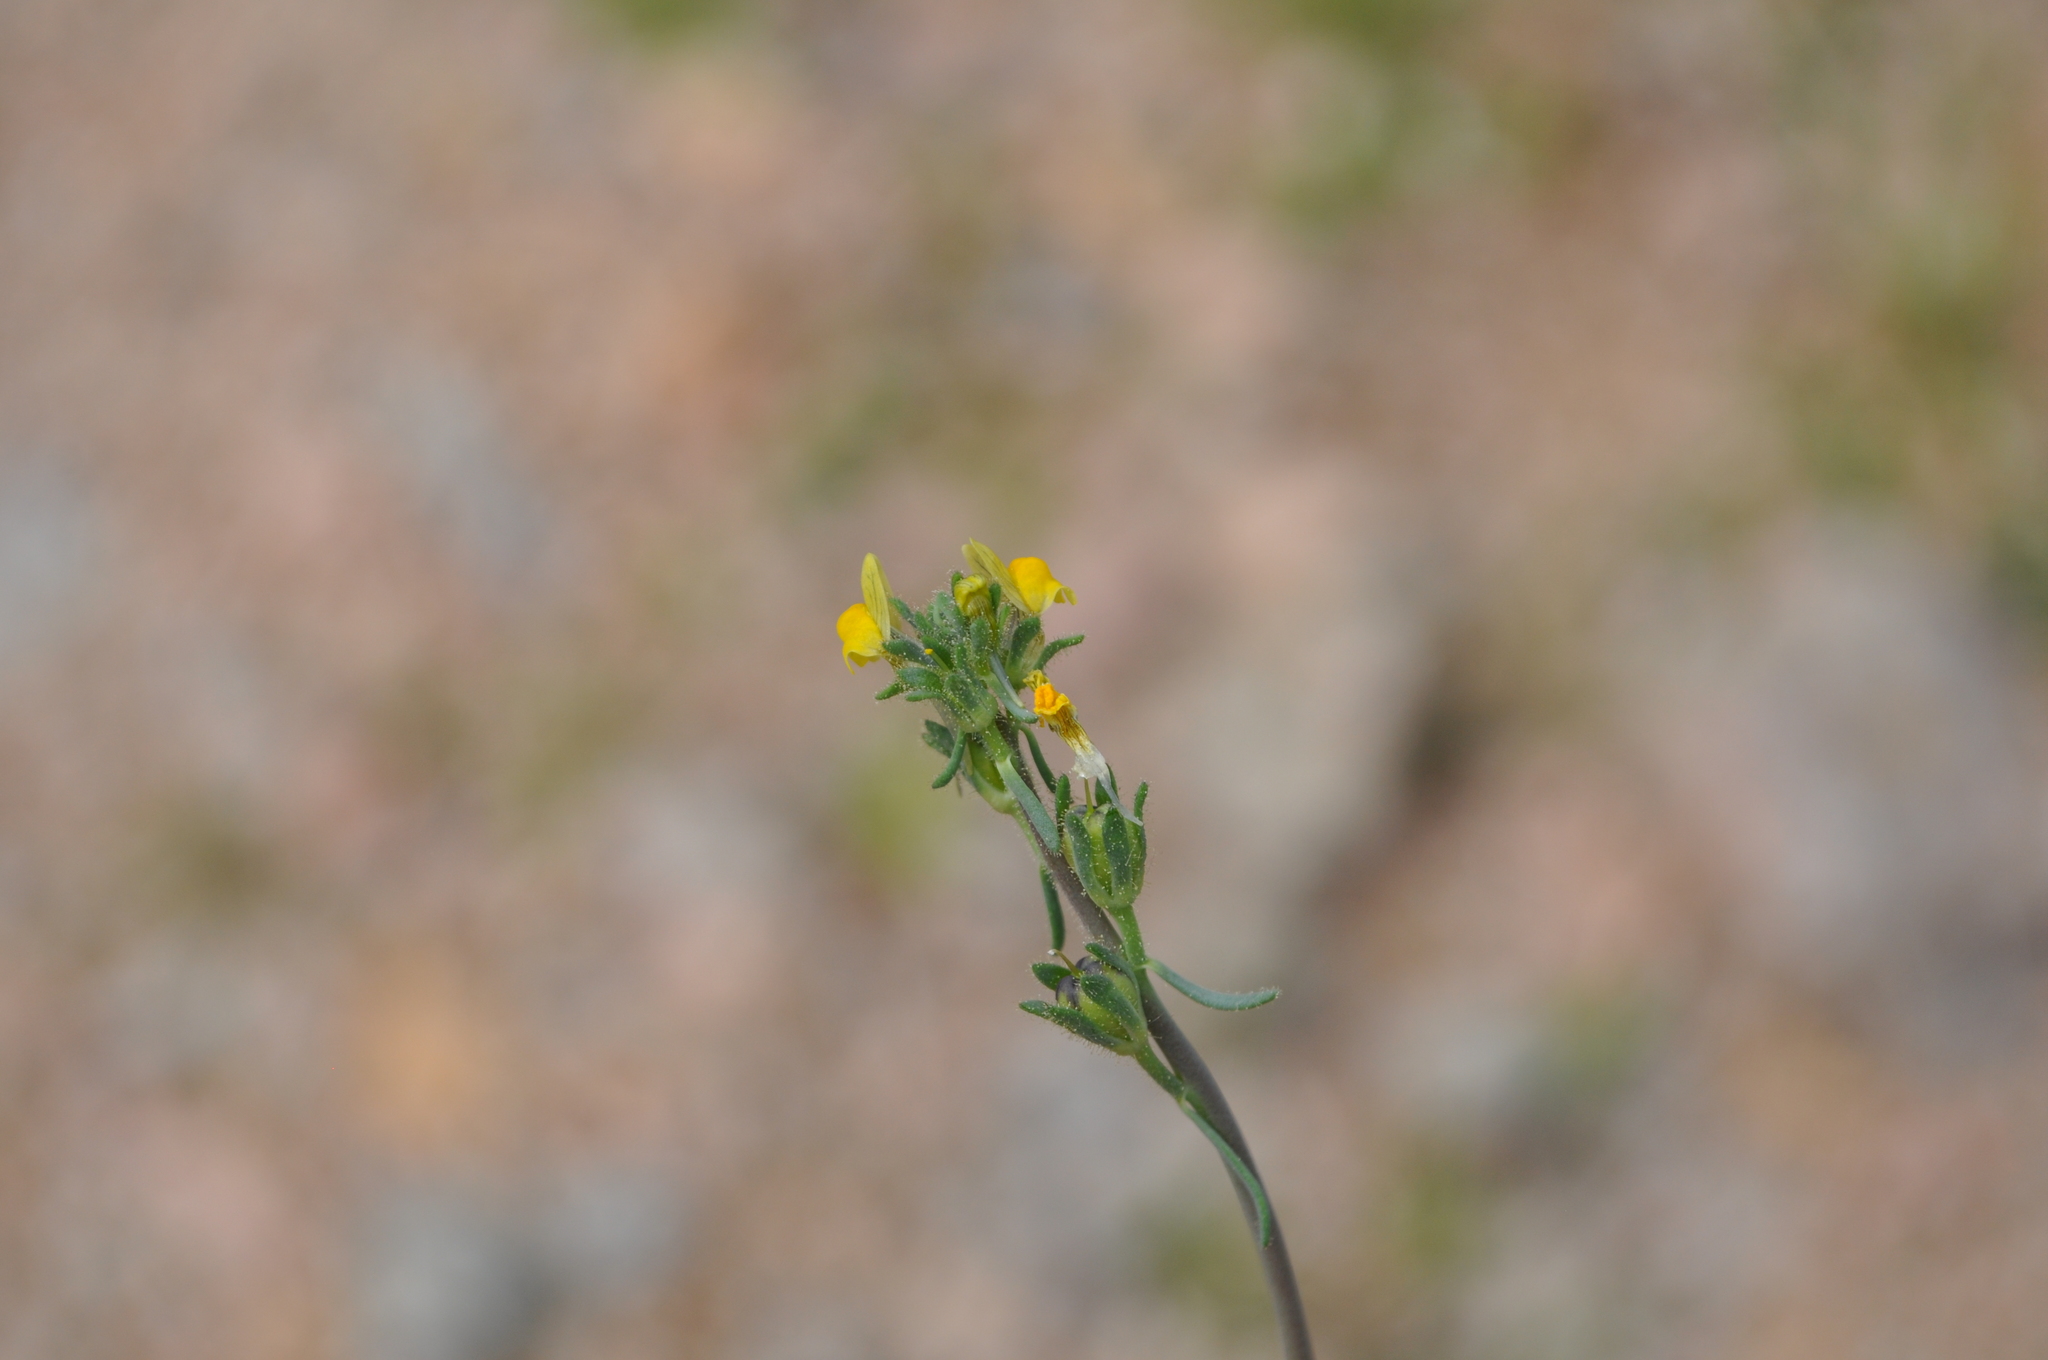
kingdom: Plantae
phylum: Tracheophyta
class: Magnoliopsida
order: Lamiales
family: Plantaginaceae
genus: Linaria
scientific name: Linaria simplex
